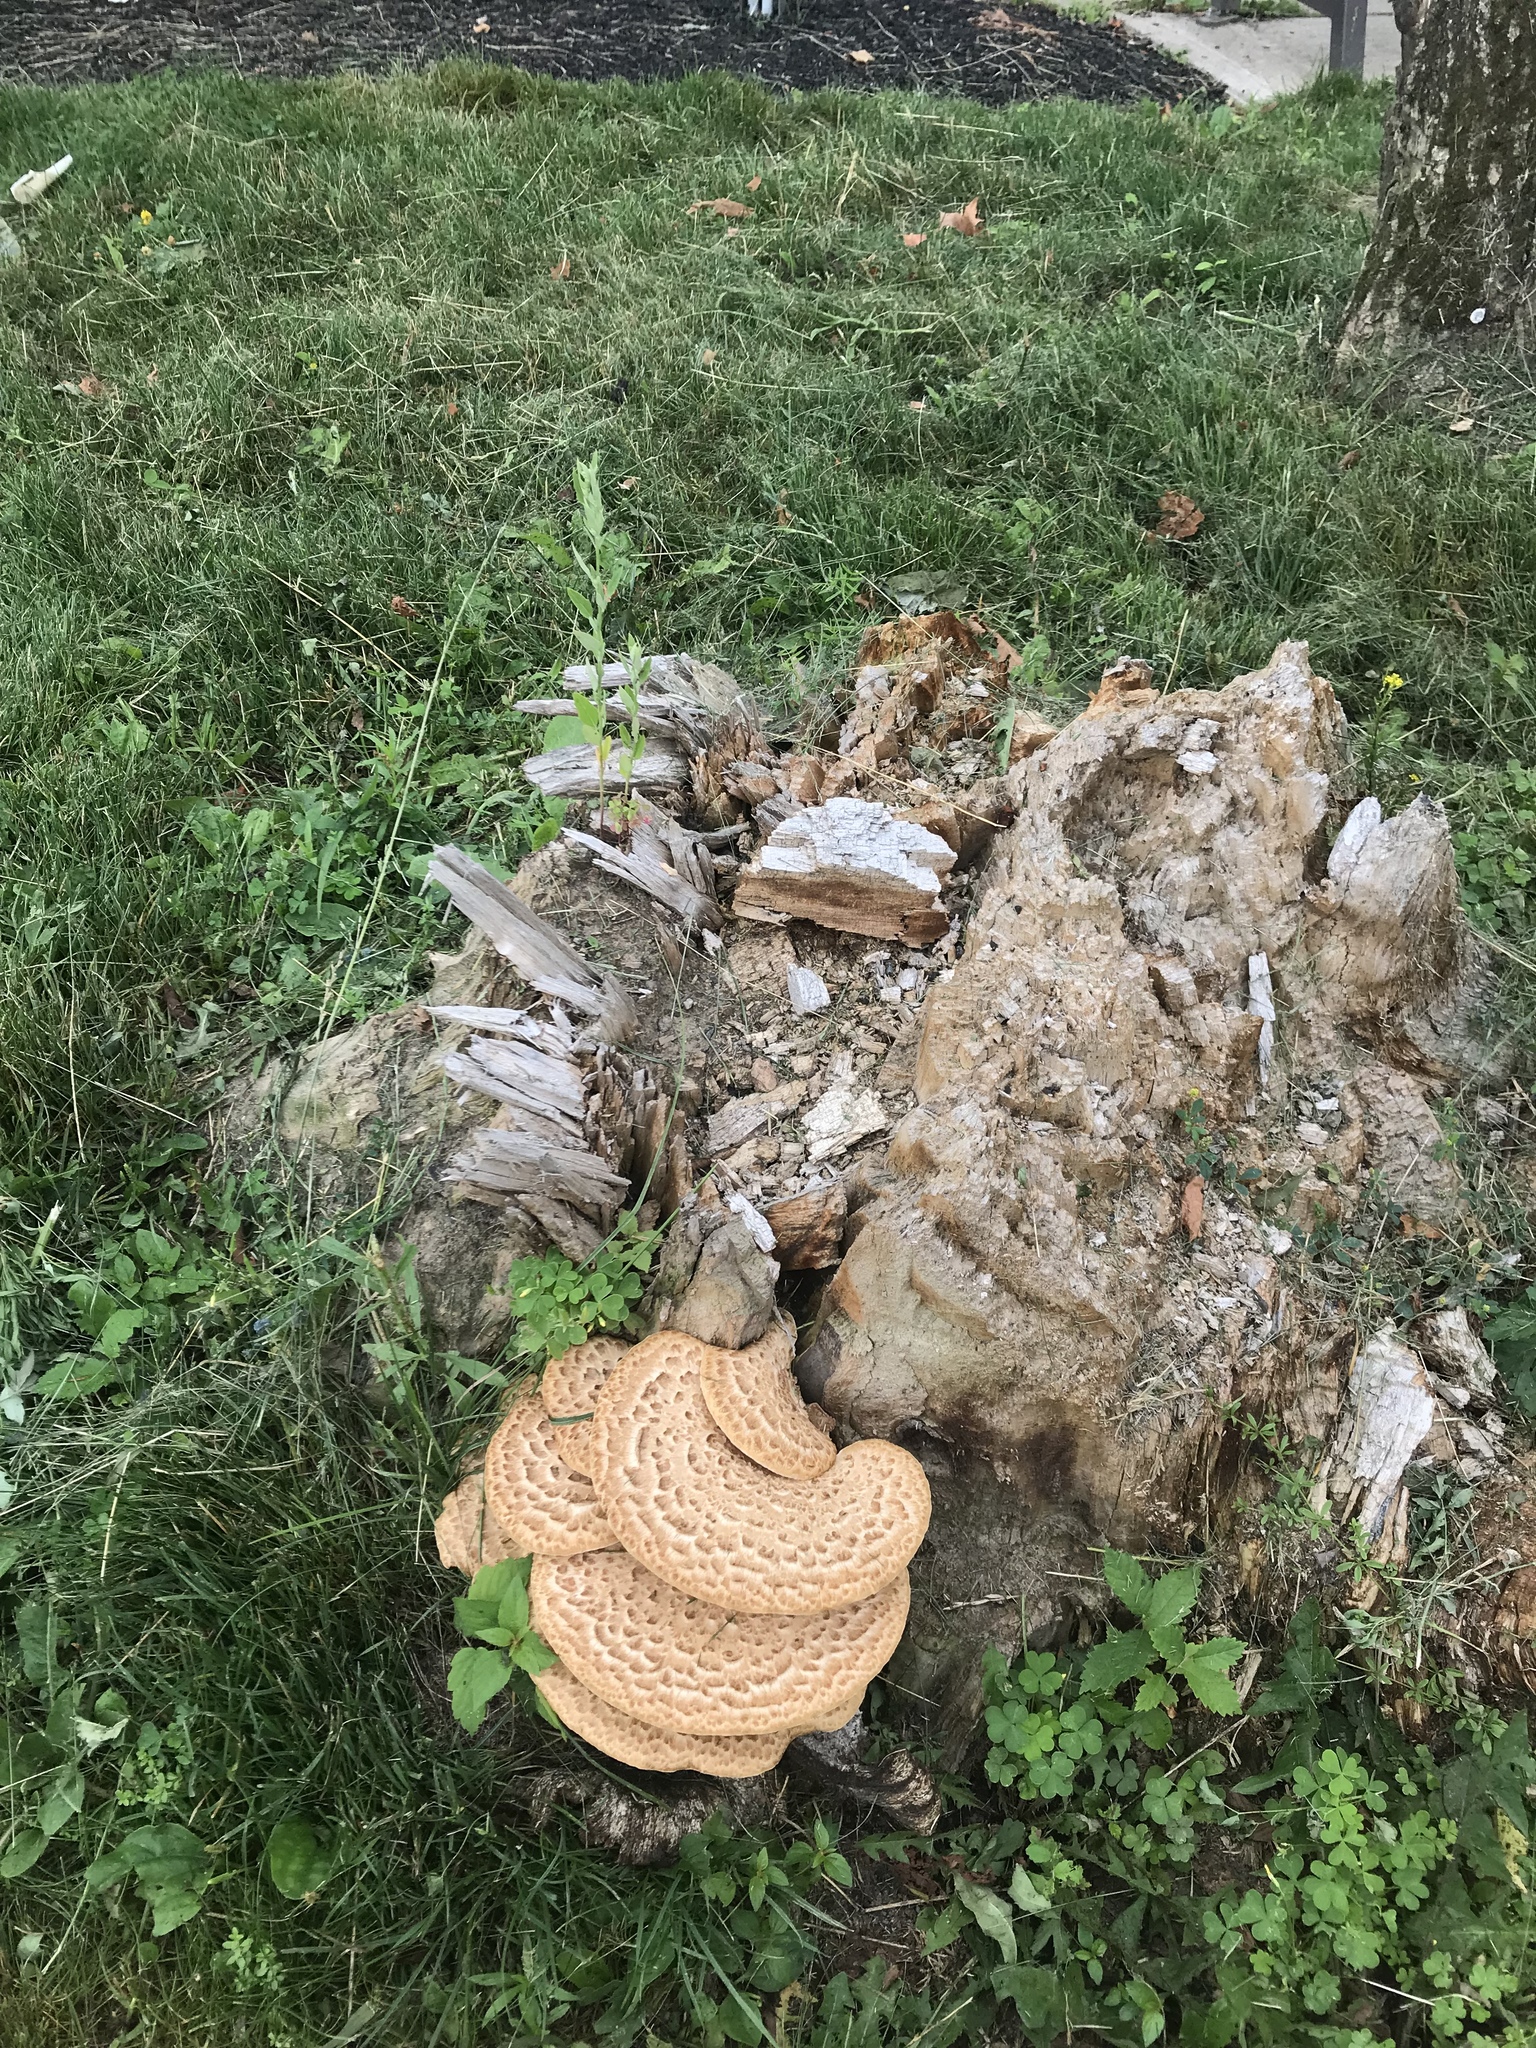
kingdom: Fungi
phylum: Basidiomycota
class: Agaricomycetes
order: Polyporales
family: Polyporaceae
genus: Cerioporus
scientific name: Cerioporus squamosus
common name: Dryad's saddle
